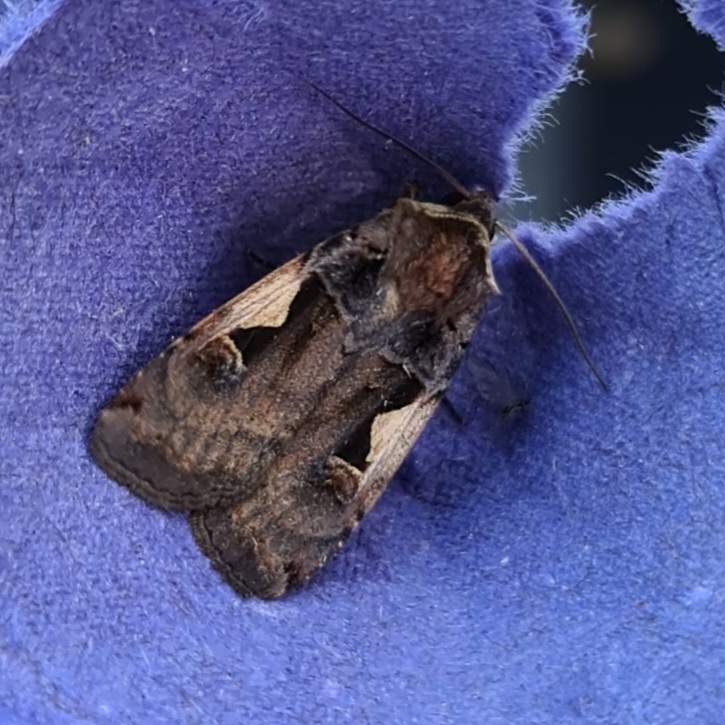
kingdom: Animalia
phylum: Arthropoda
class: Insecta
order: Lepidoptera
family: Noctuidae
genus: Xestia
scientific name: Xestia c-nigrum
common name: Setaceous hebrew character
